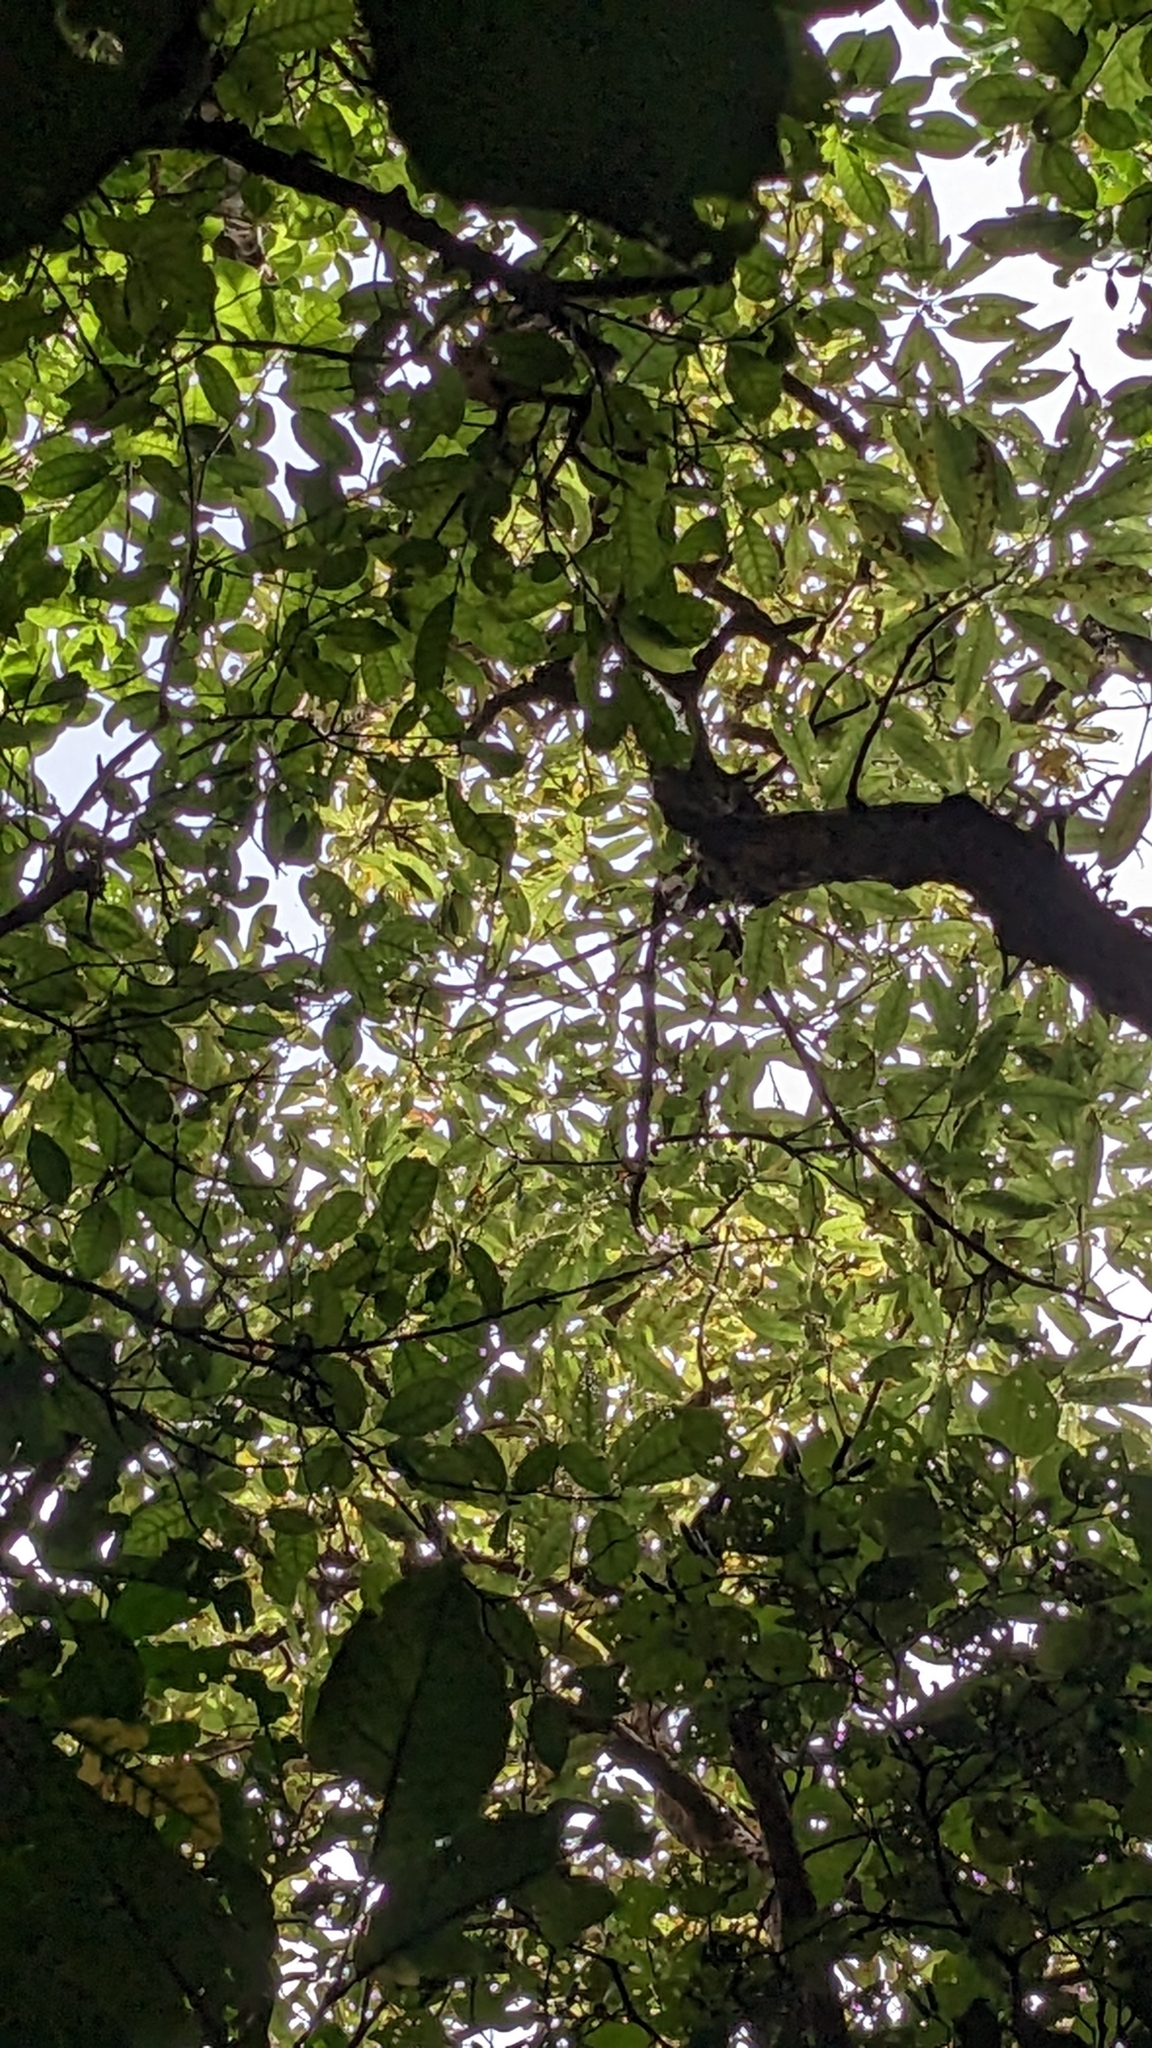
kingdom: Plantae
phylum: Tracheophyta
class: Magnoliopsida
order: Myrtales
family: Onagraceae
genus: Fuchsia
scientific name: Fuchsia excorticata
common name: Tree fuchsia
